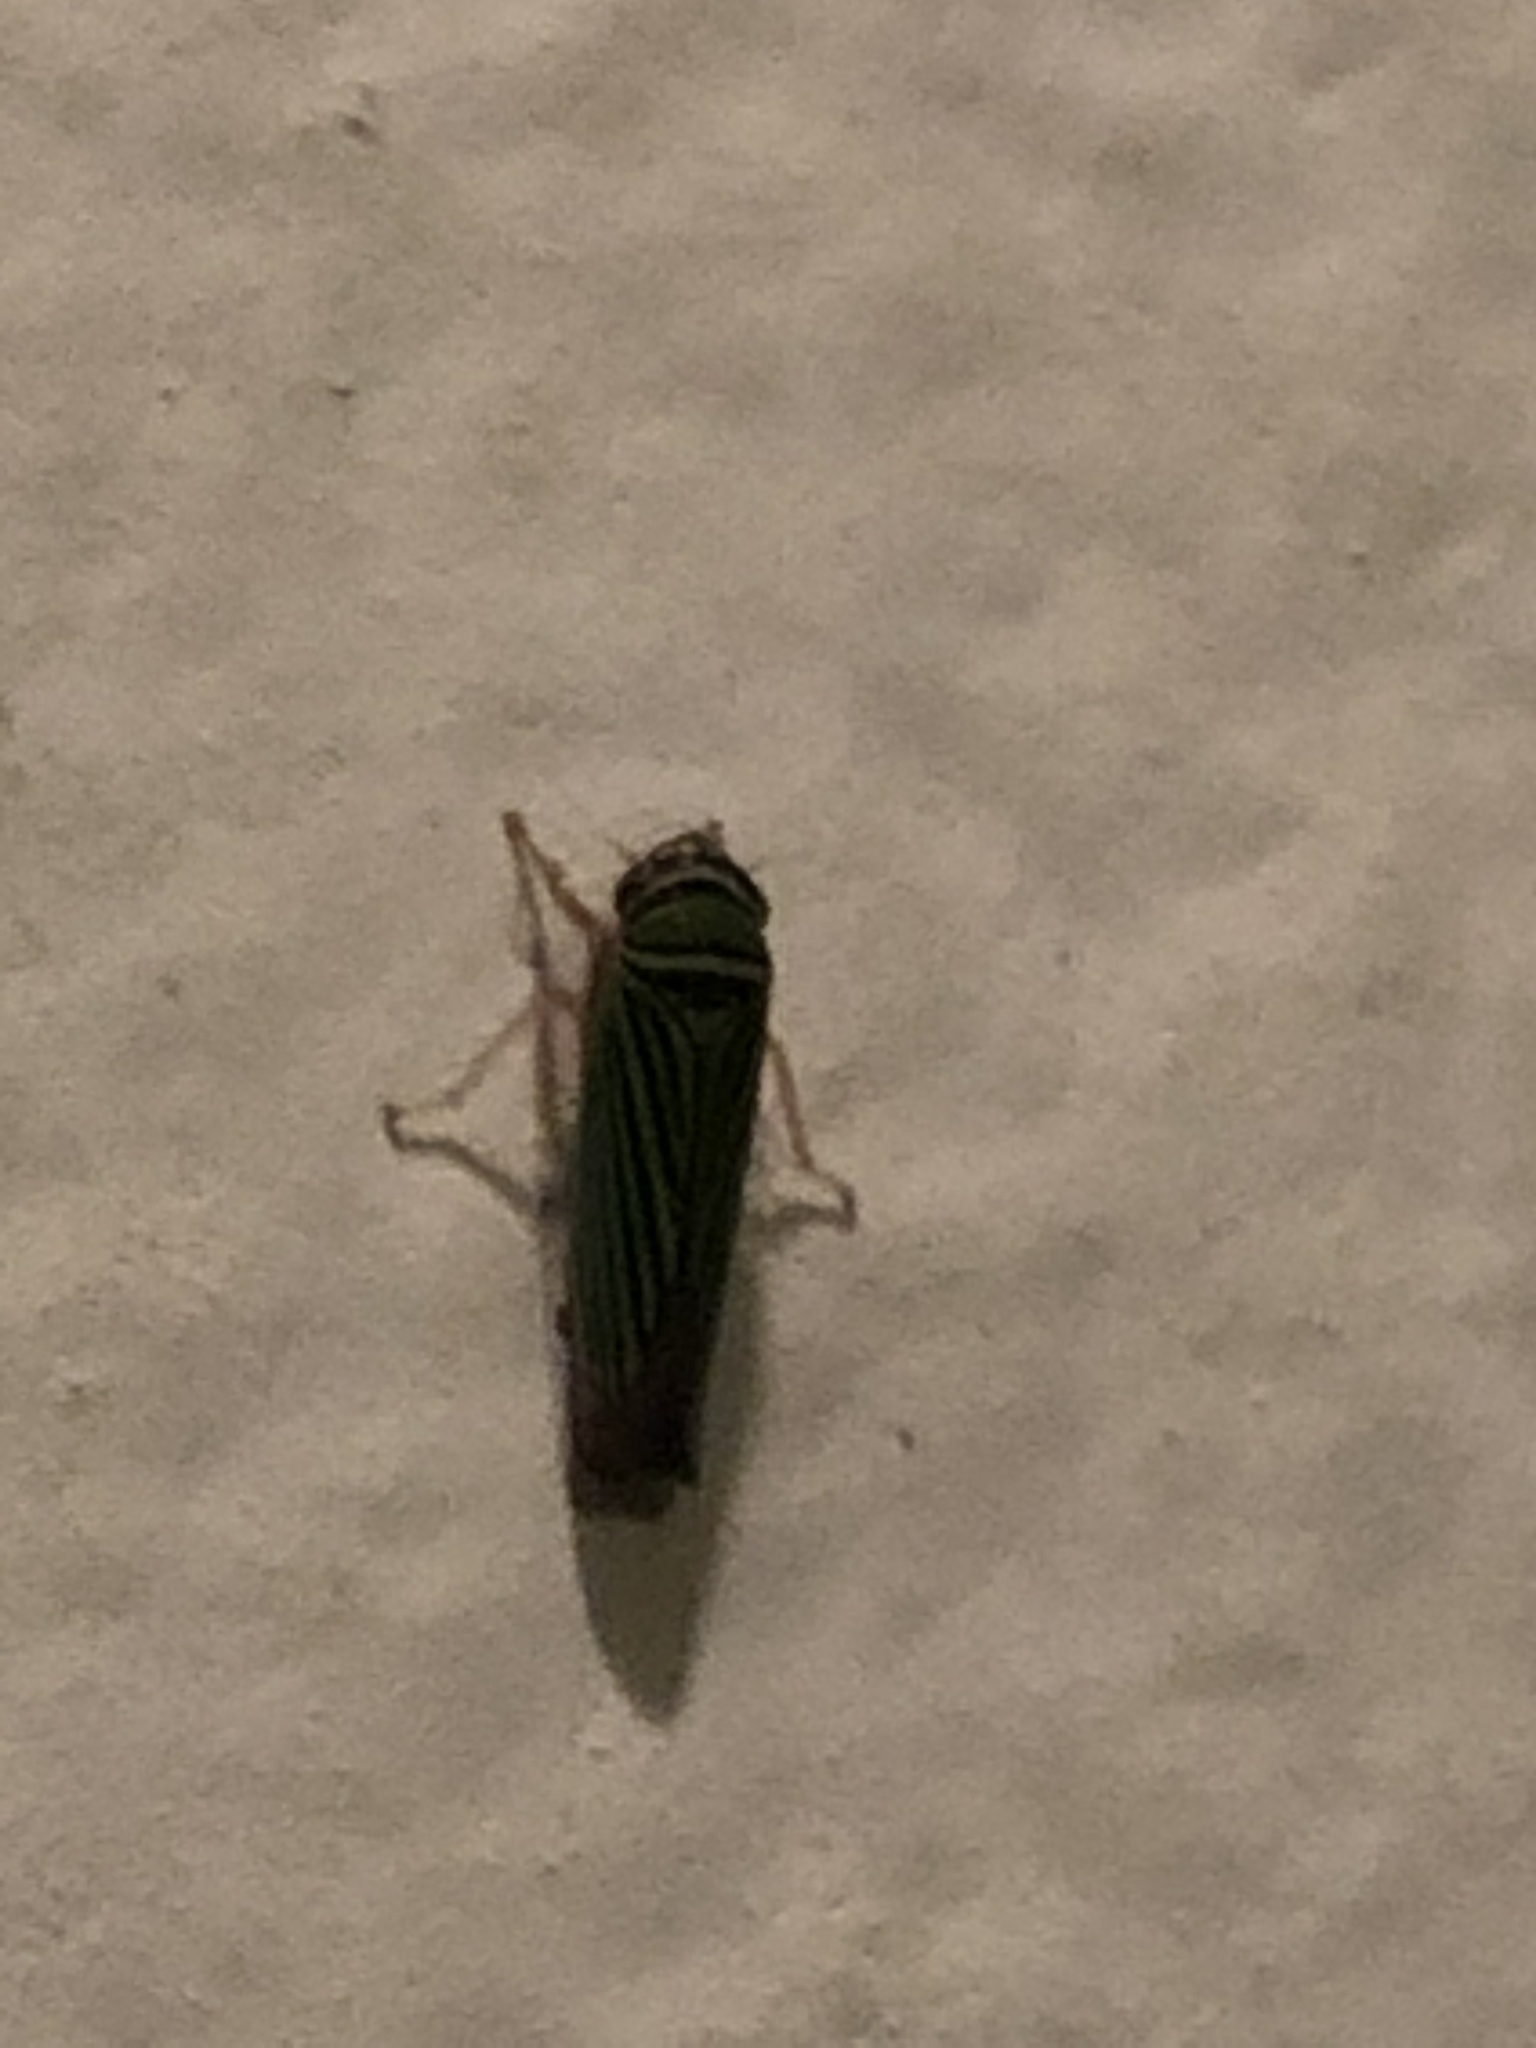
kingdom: Animalia
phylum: Arthropoda
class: Insecta
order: Hemiptera
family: Cicadellidae
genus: Tylozygus
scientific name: Tylozygus bifidus
